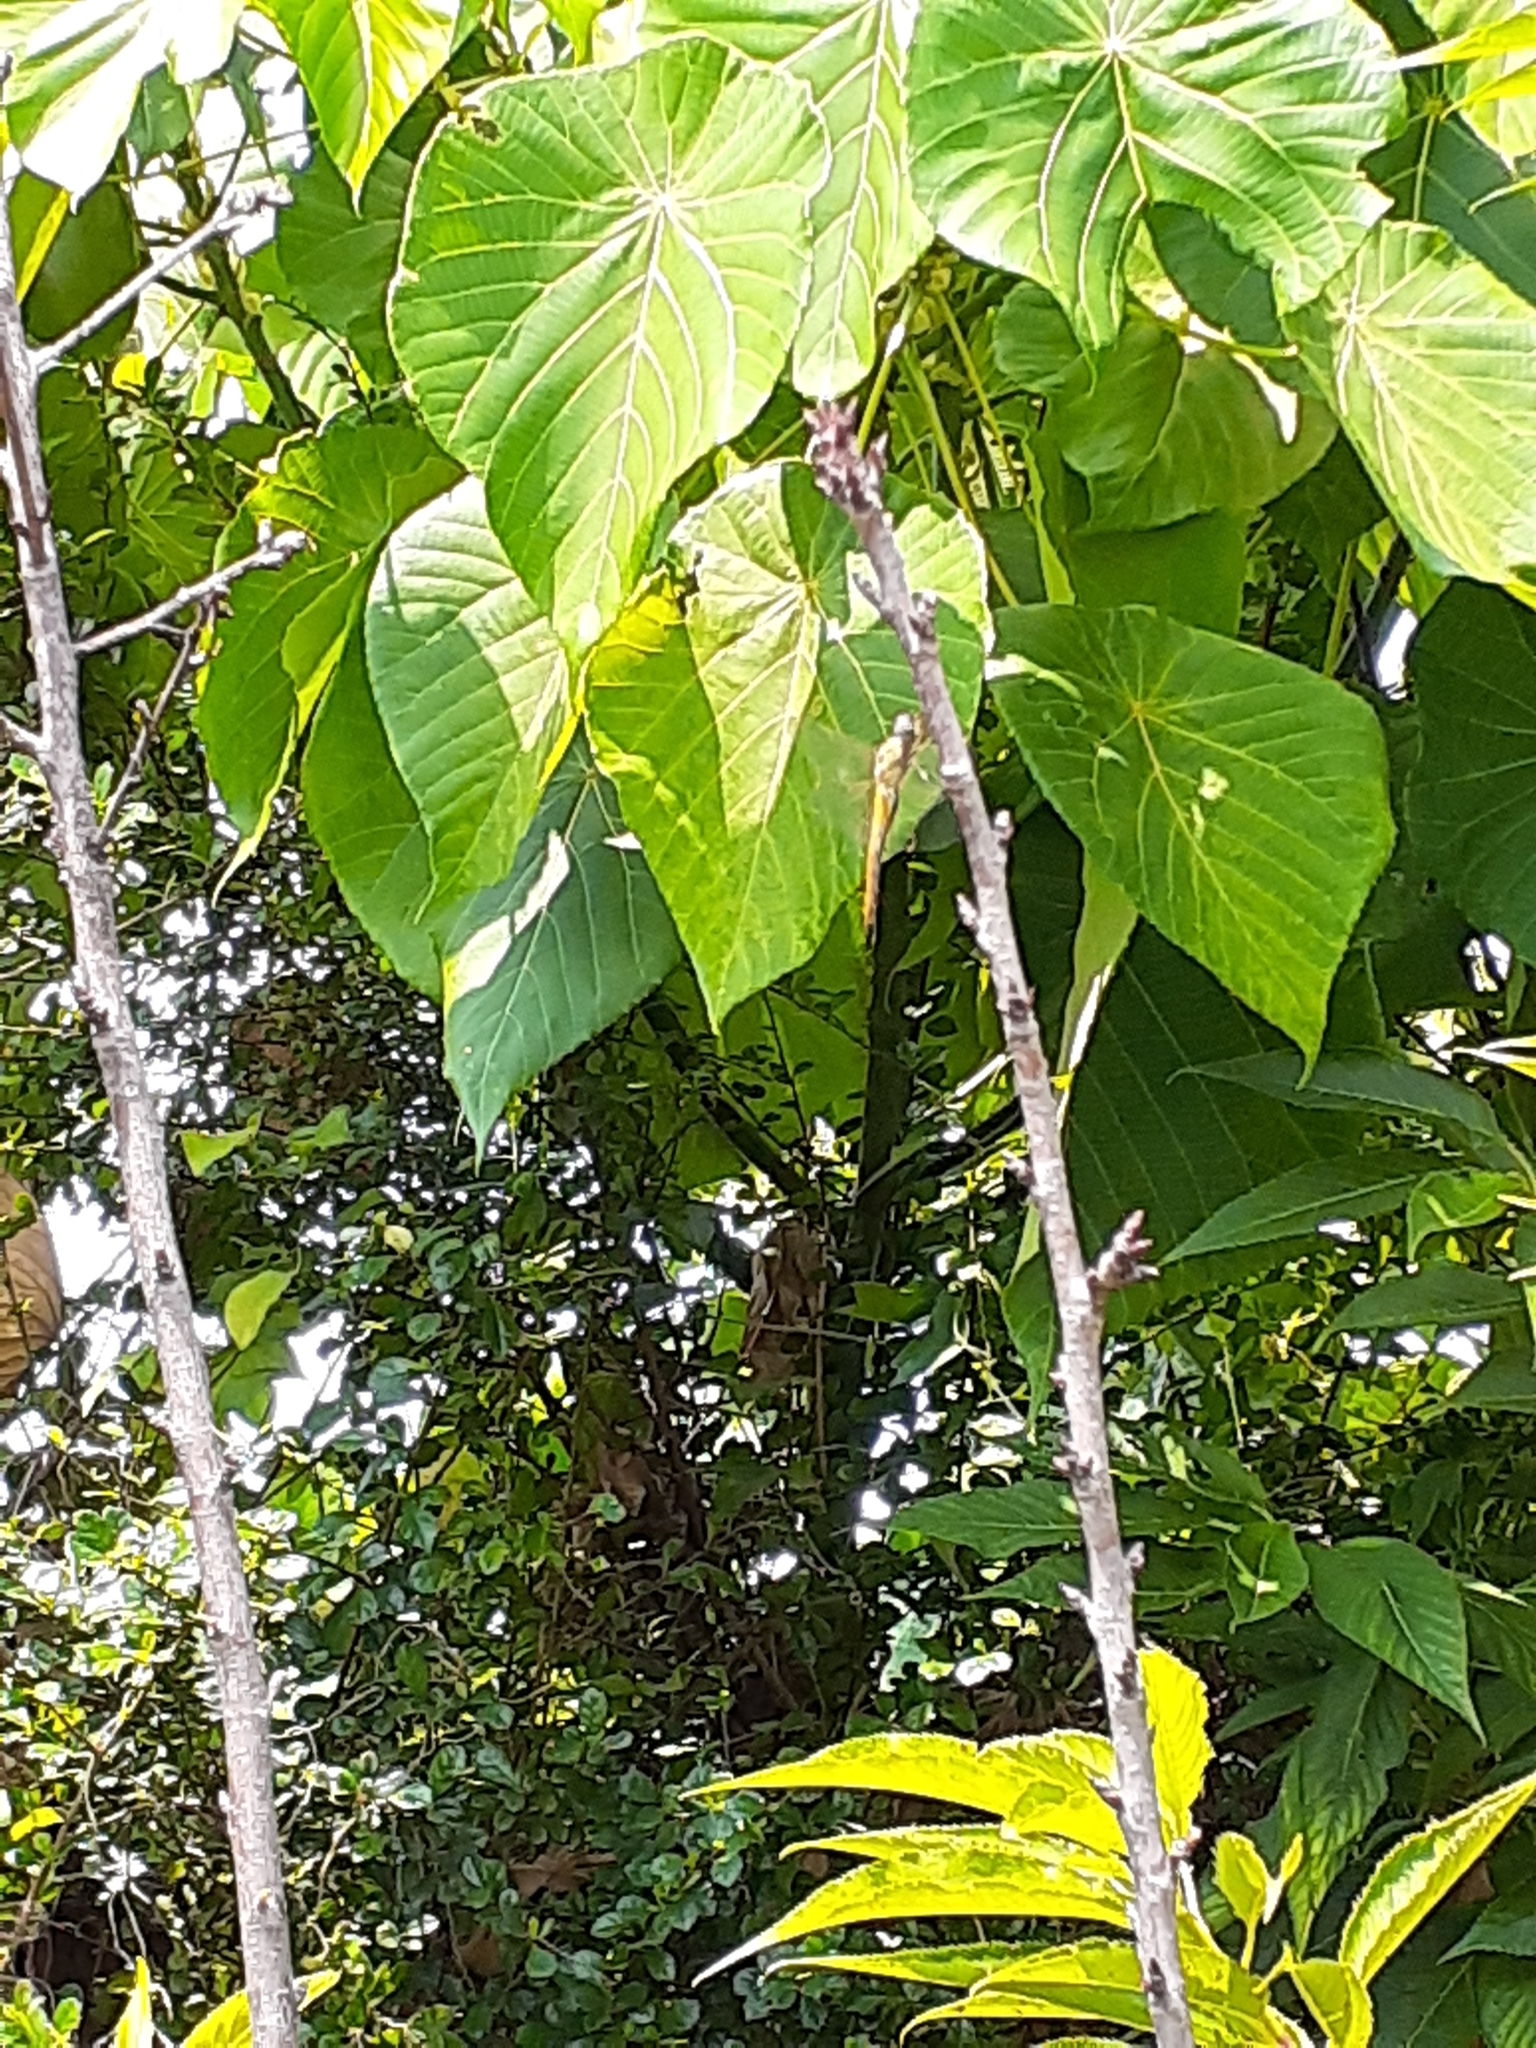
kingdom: Animalia
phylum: Arthropoda
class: Insecta
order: Odonata
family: Libellulidae
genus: Pantala
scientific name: Pantala flavescens
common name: Wandering glider
